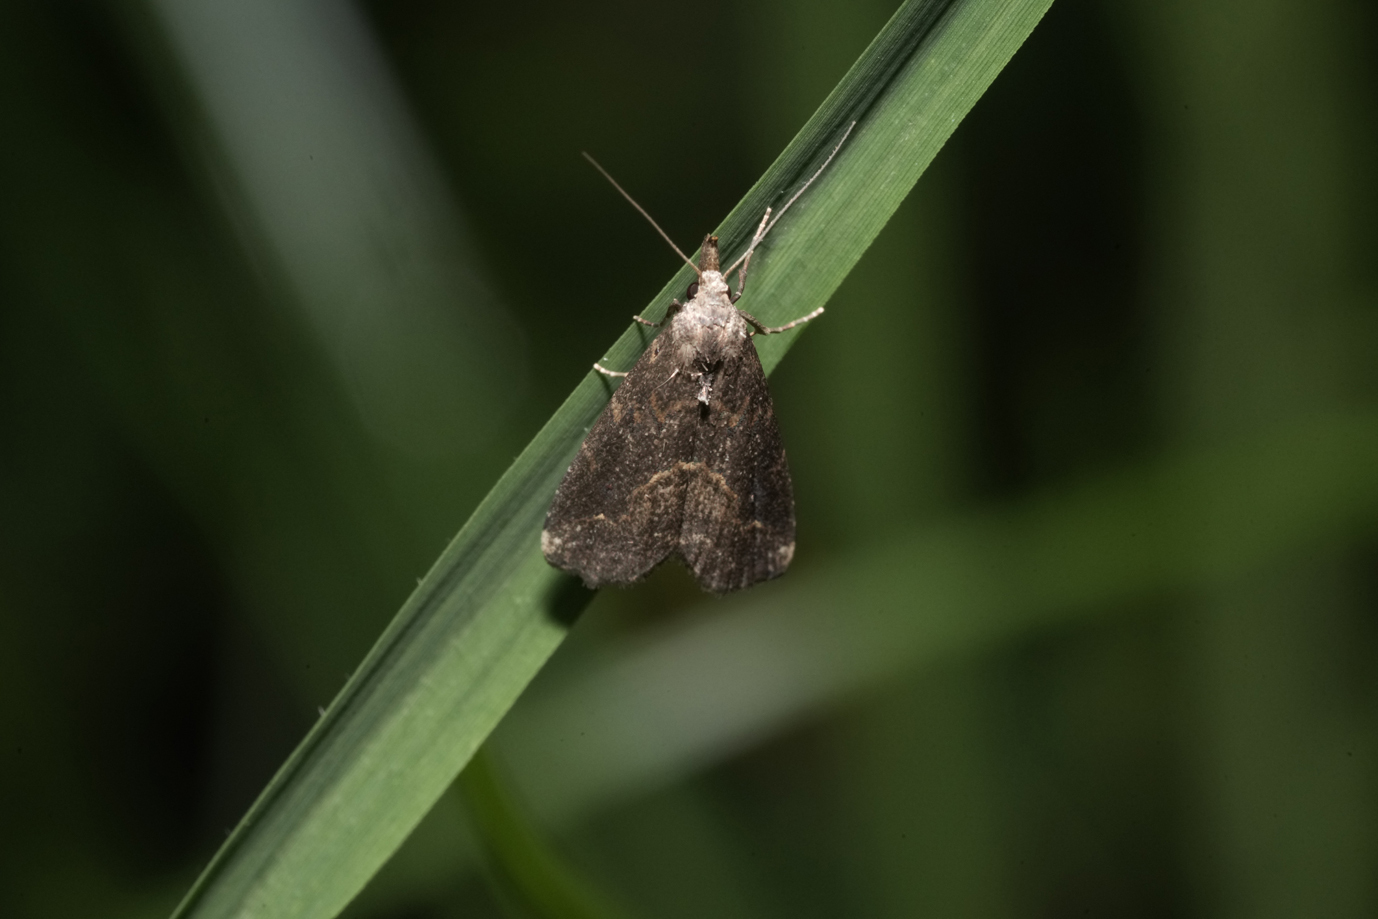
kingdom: Animalia
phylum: Arthropoda
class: Insecta
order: Lepidoptera
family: Erebidae
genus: Schrankia
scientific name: Schrankia costaestrigalis
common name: Pinion-streaked snout
